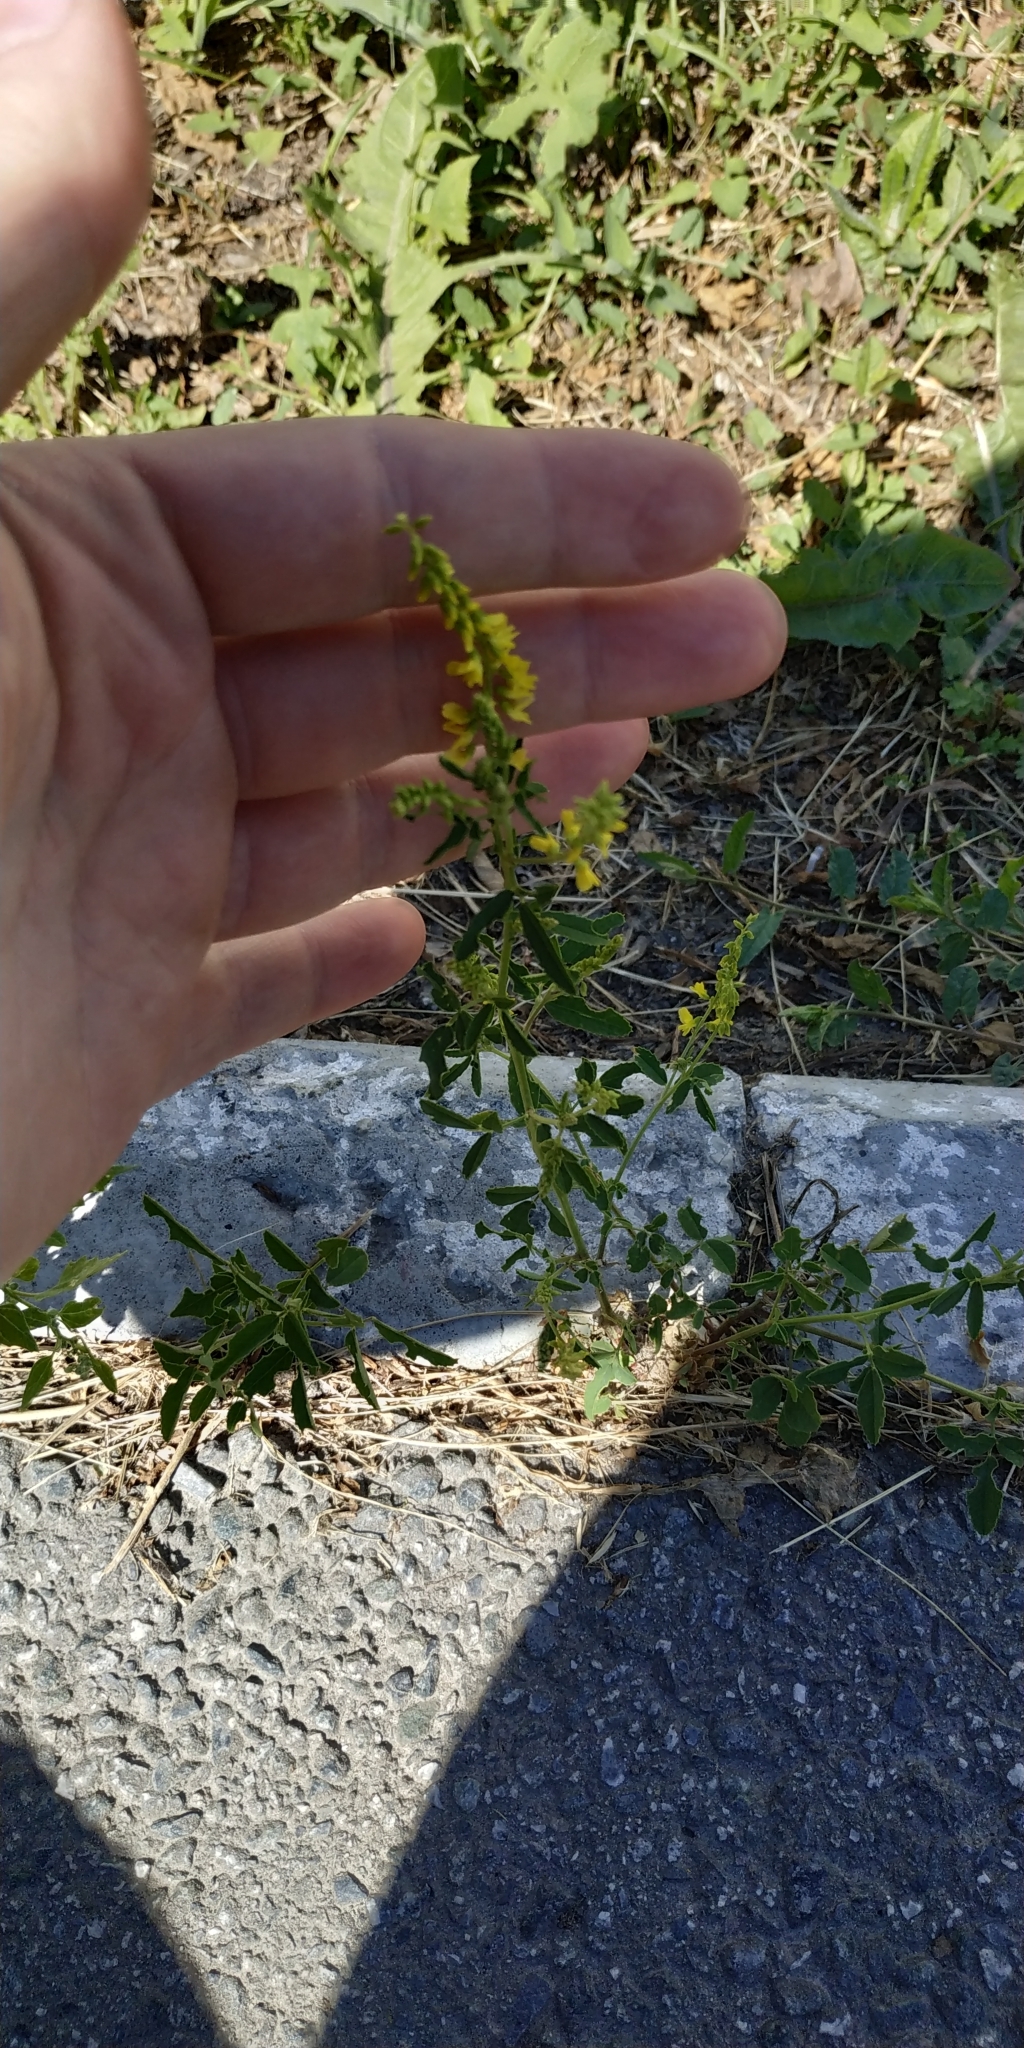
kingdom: Plantae
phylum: Tracheophyta
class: Magnoliopsida
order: Fabales
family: Fabaceae
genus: Melilotus
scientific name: Melilotus officinalis
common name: Sweetclover
